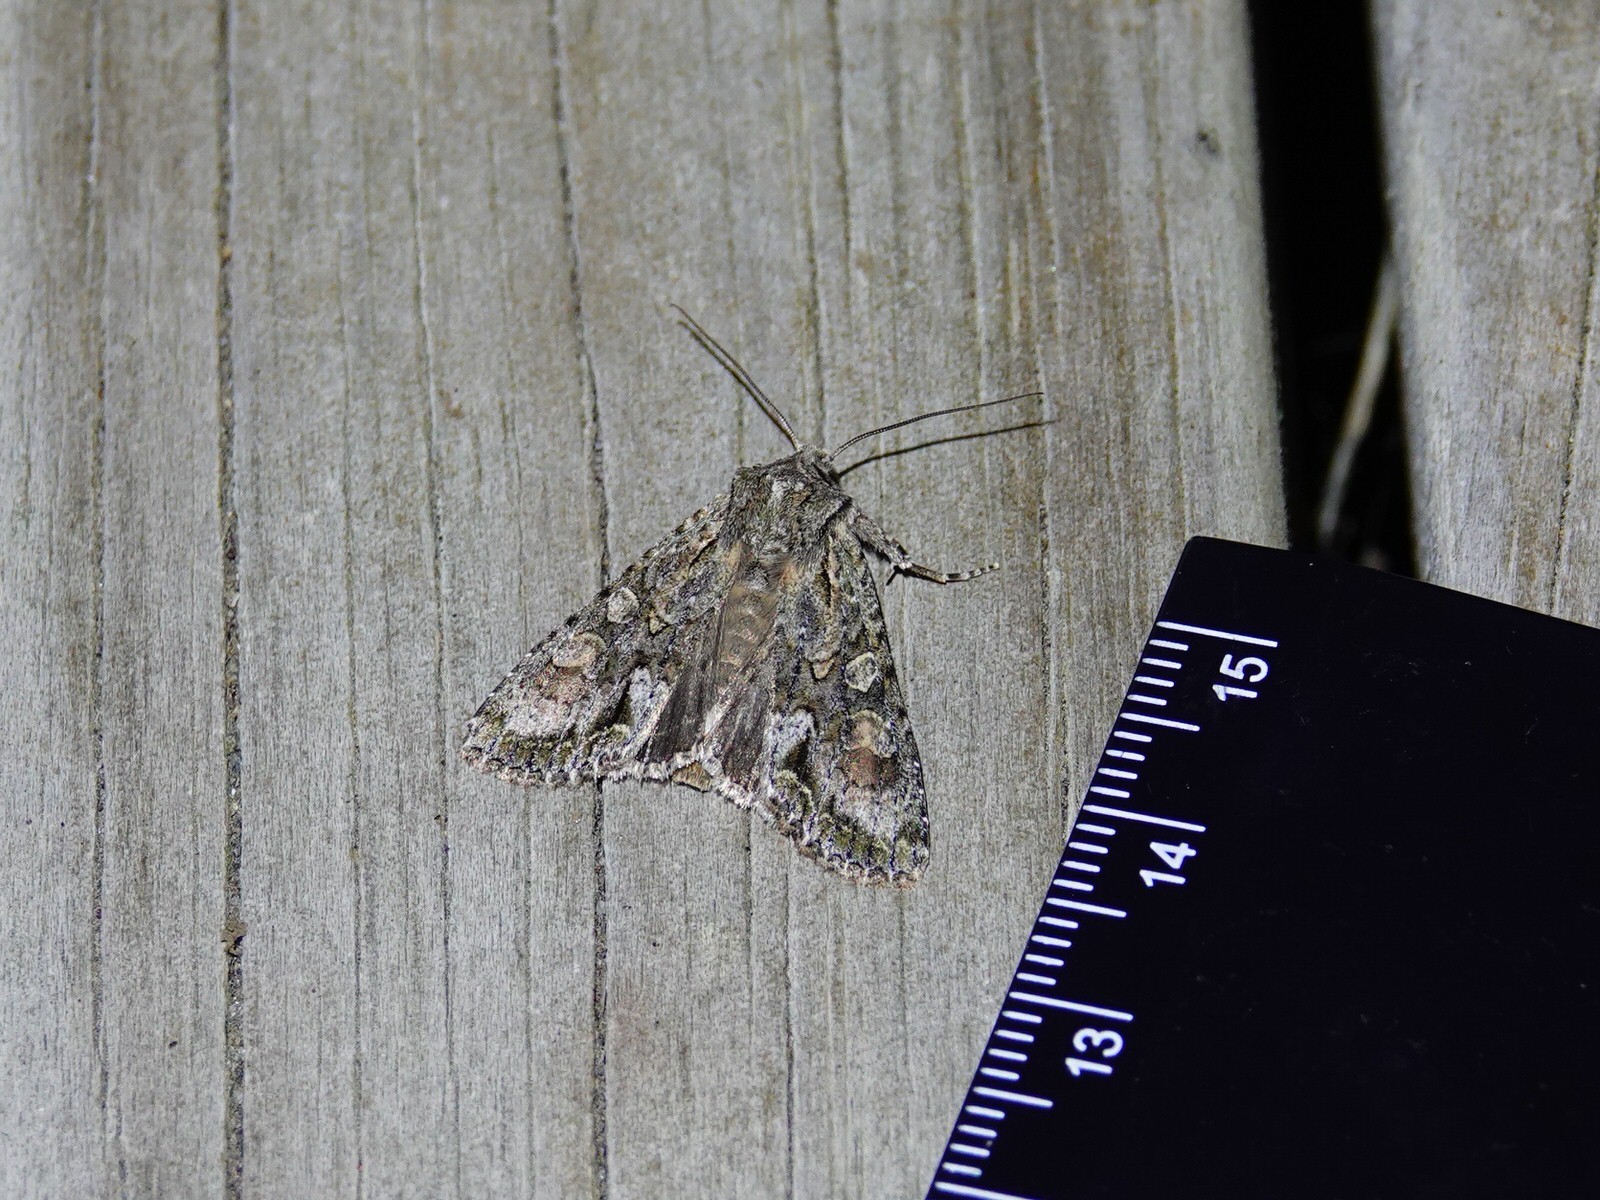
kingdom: Animalia
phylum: Arthropoda
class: Insecta
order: Lepidoptera
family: Noctuidae
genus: Ichneutica
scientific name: Ichneutica mutans
